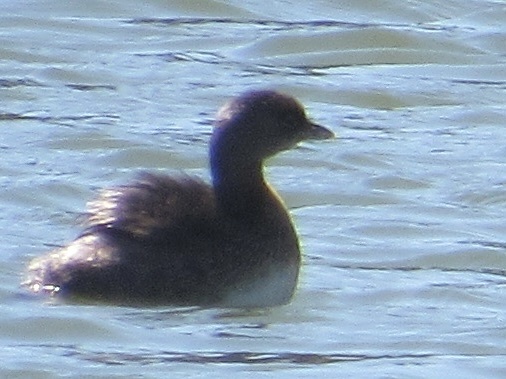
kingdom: Animalia
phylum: Chordata
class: Aves
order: Podicipediformes
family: Podicipedidae
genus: Podilymbus
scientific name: Podilymbus podiceps
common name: Pied-billed grebe
